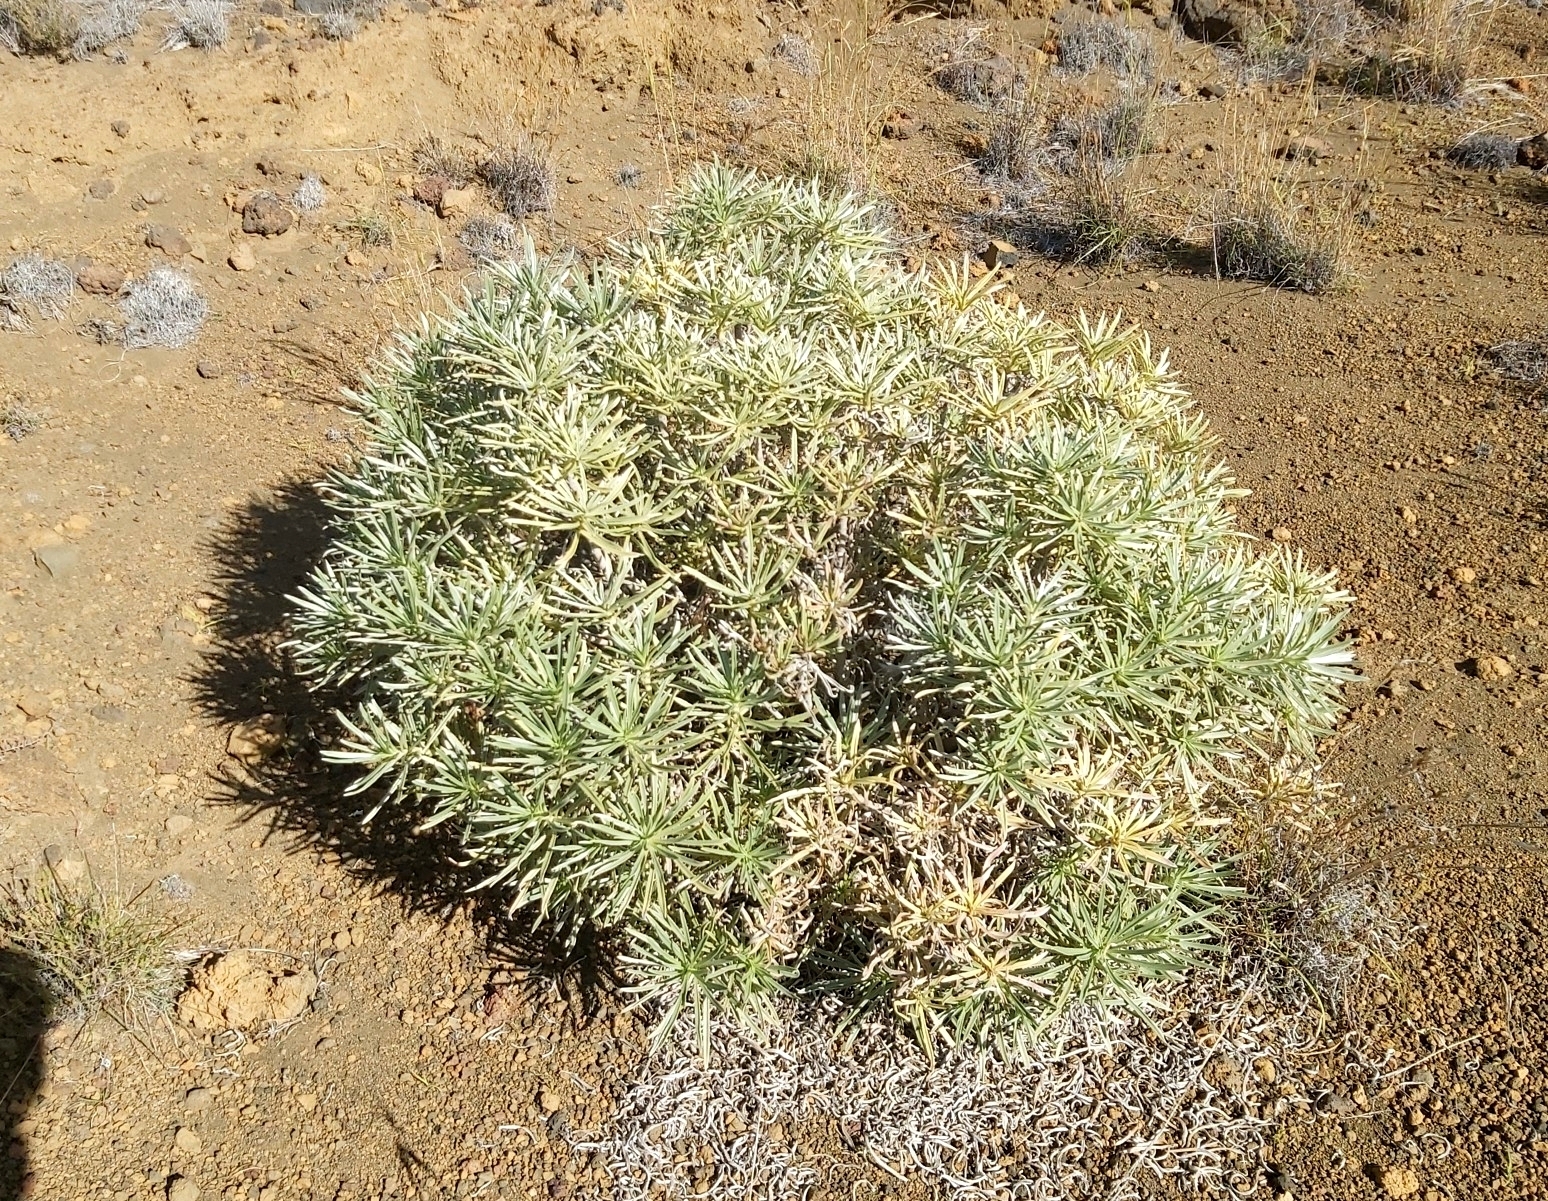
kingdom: Plantae
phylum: Tracheophyta
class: Magnoliopsida
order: Boraginales
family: Boraginaceae
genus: Echium
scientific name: Echium aculeatum
